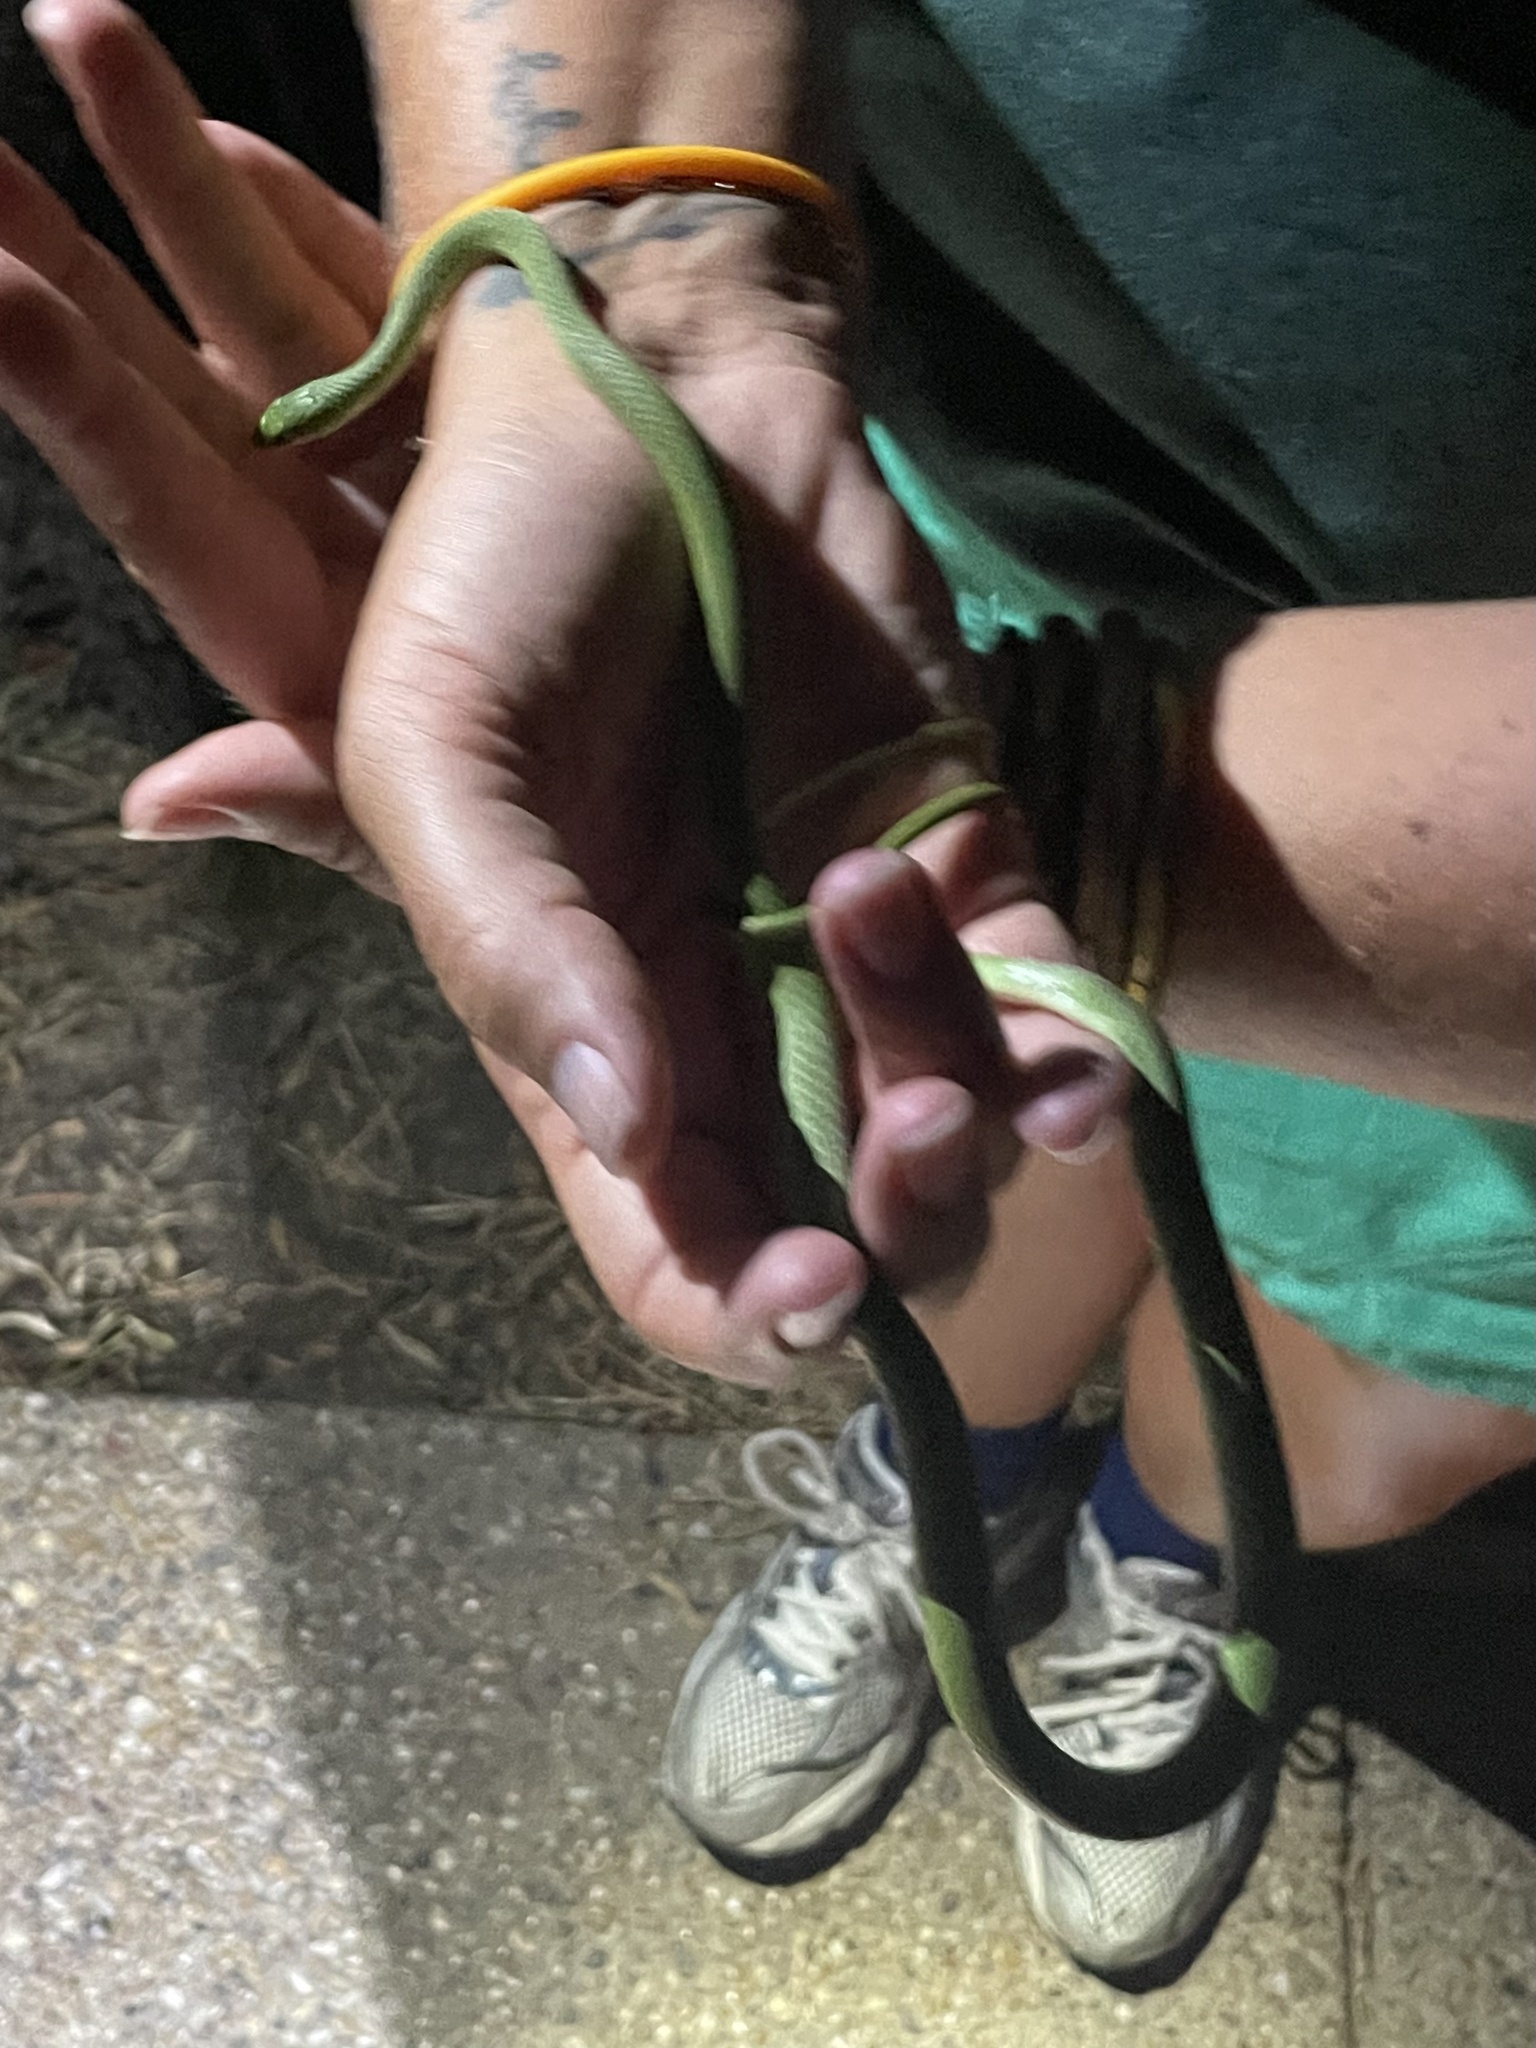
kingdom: Animalia
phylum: Chordata
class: Squamata
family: Colubridae
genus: Opheodrys
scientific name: Opheodrys aestivus
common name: Rough greensnake
